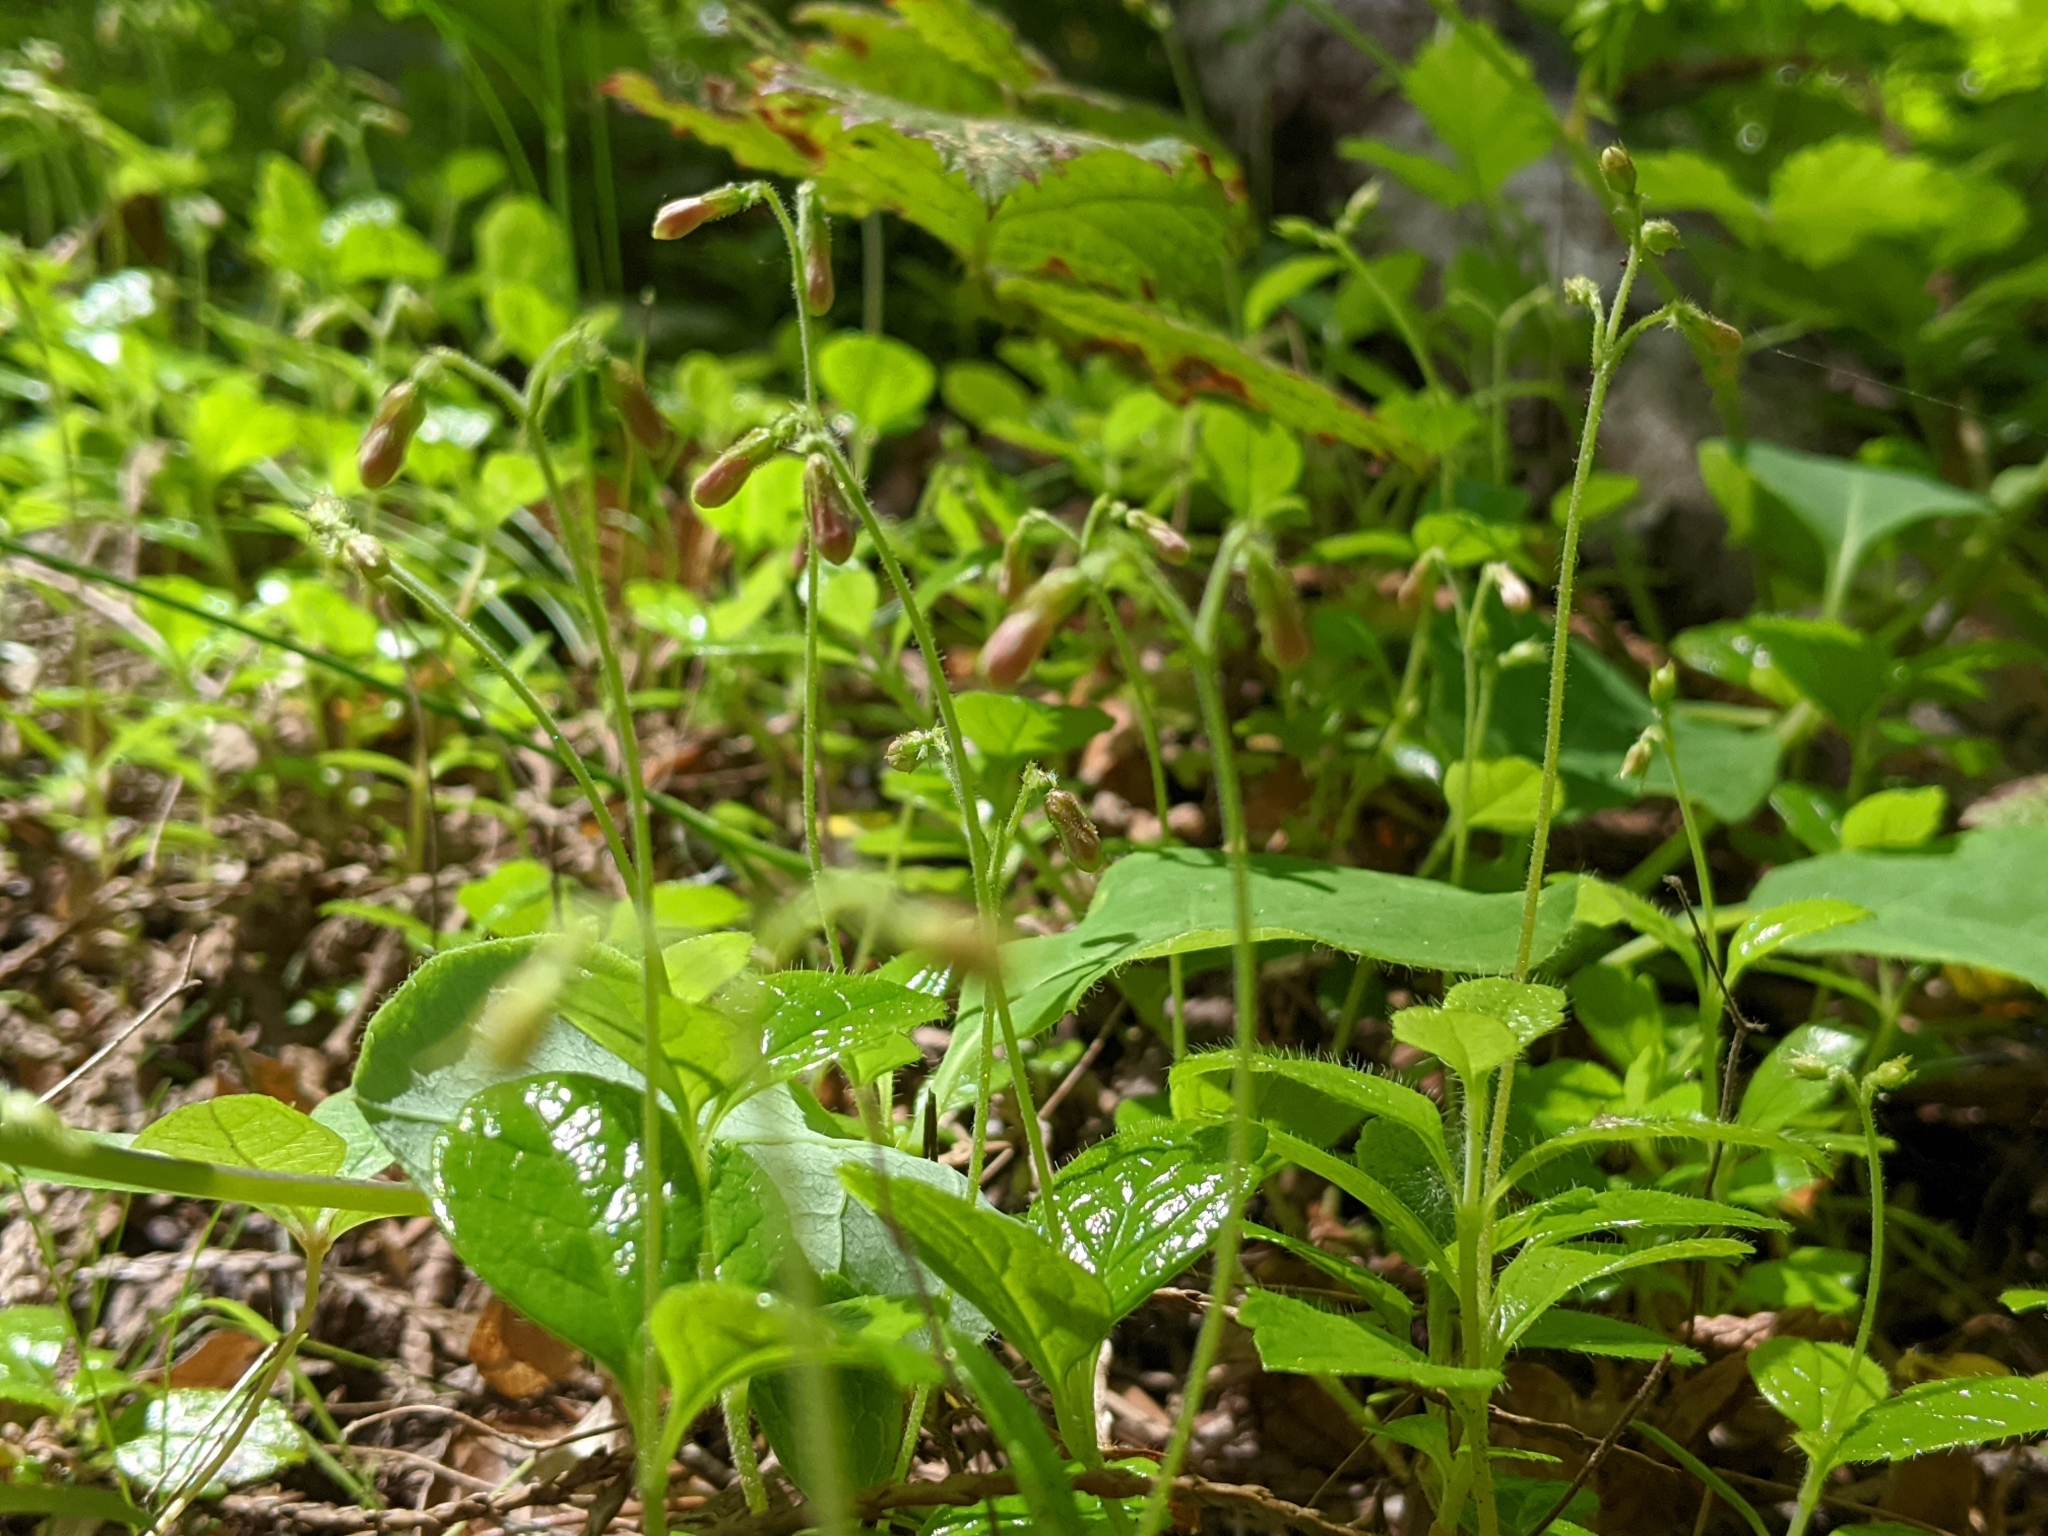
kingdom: Plantae
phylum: Tracheophyta
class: Magnoliopsida
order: Dipsacales
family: Caprifoliaceae
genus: Linnaea
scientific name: Linnaea borealis
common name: Twinflower
